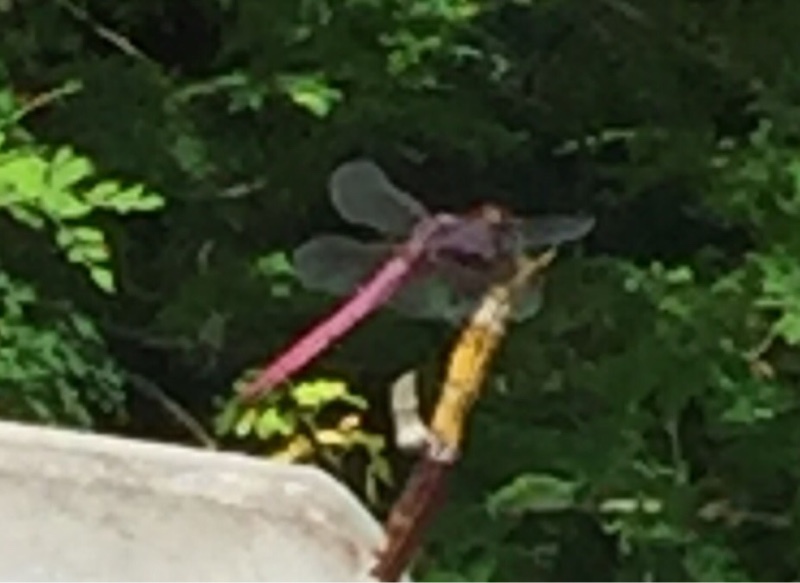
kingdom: Animalia
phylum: Arthropoda
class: Insecta
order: Odonata
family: Libellulidae
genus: Orthemis
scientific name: Orthemis ferruginea
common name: Roseate skimmer
